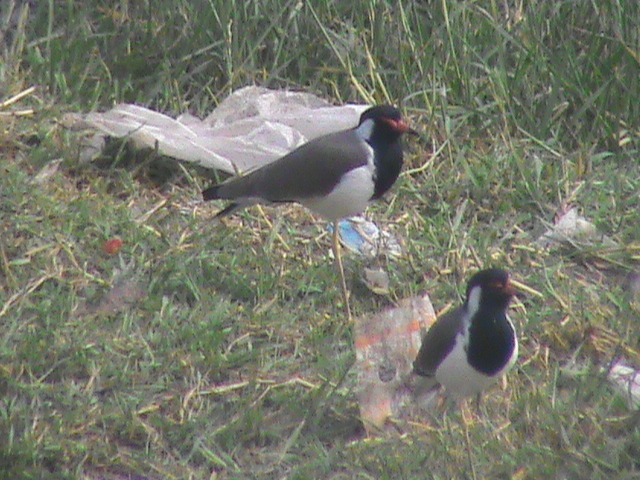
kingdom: Animalia
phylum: Chordata
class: Aves
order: Charadriiformes
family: Charadriidae
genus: Vanellus
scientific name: Vanellus indicus
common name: Red-wattled lapwing
